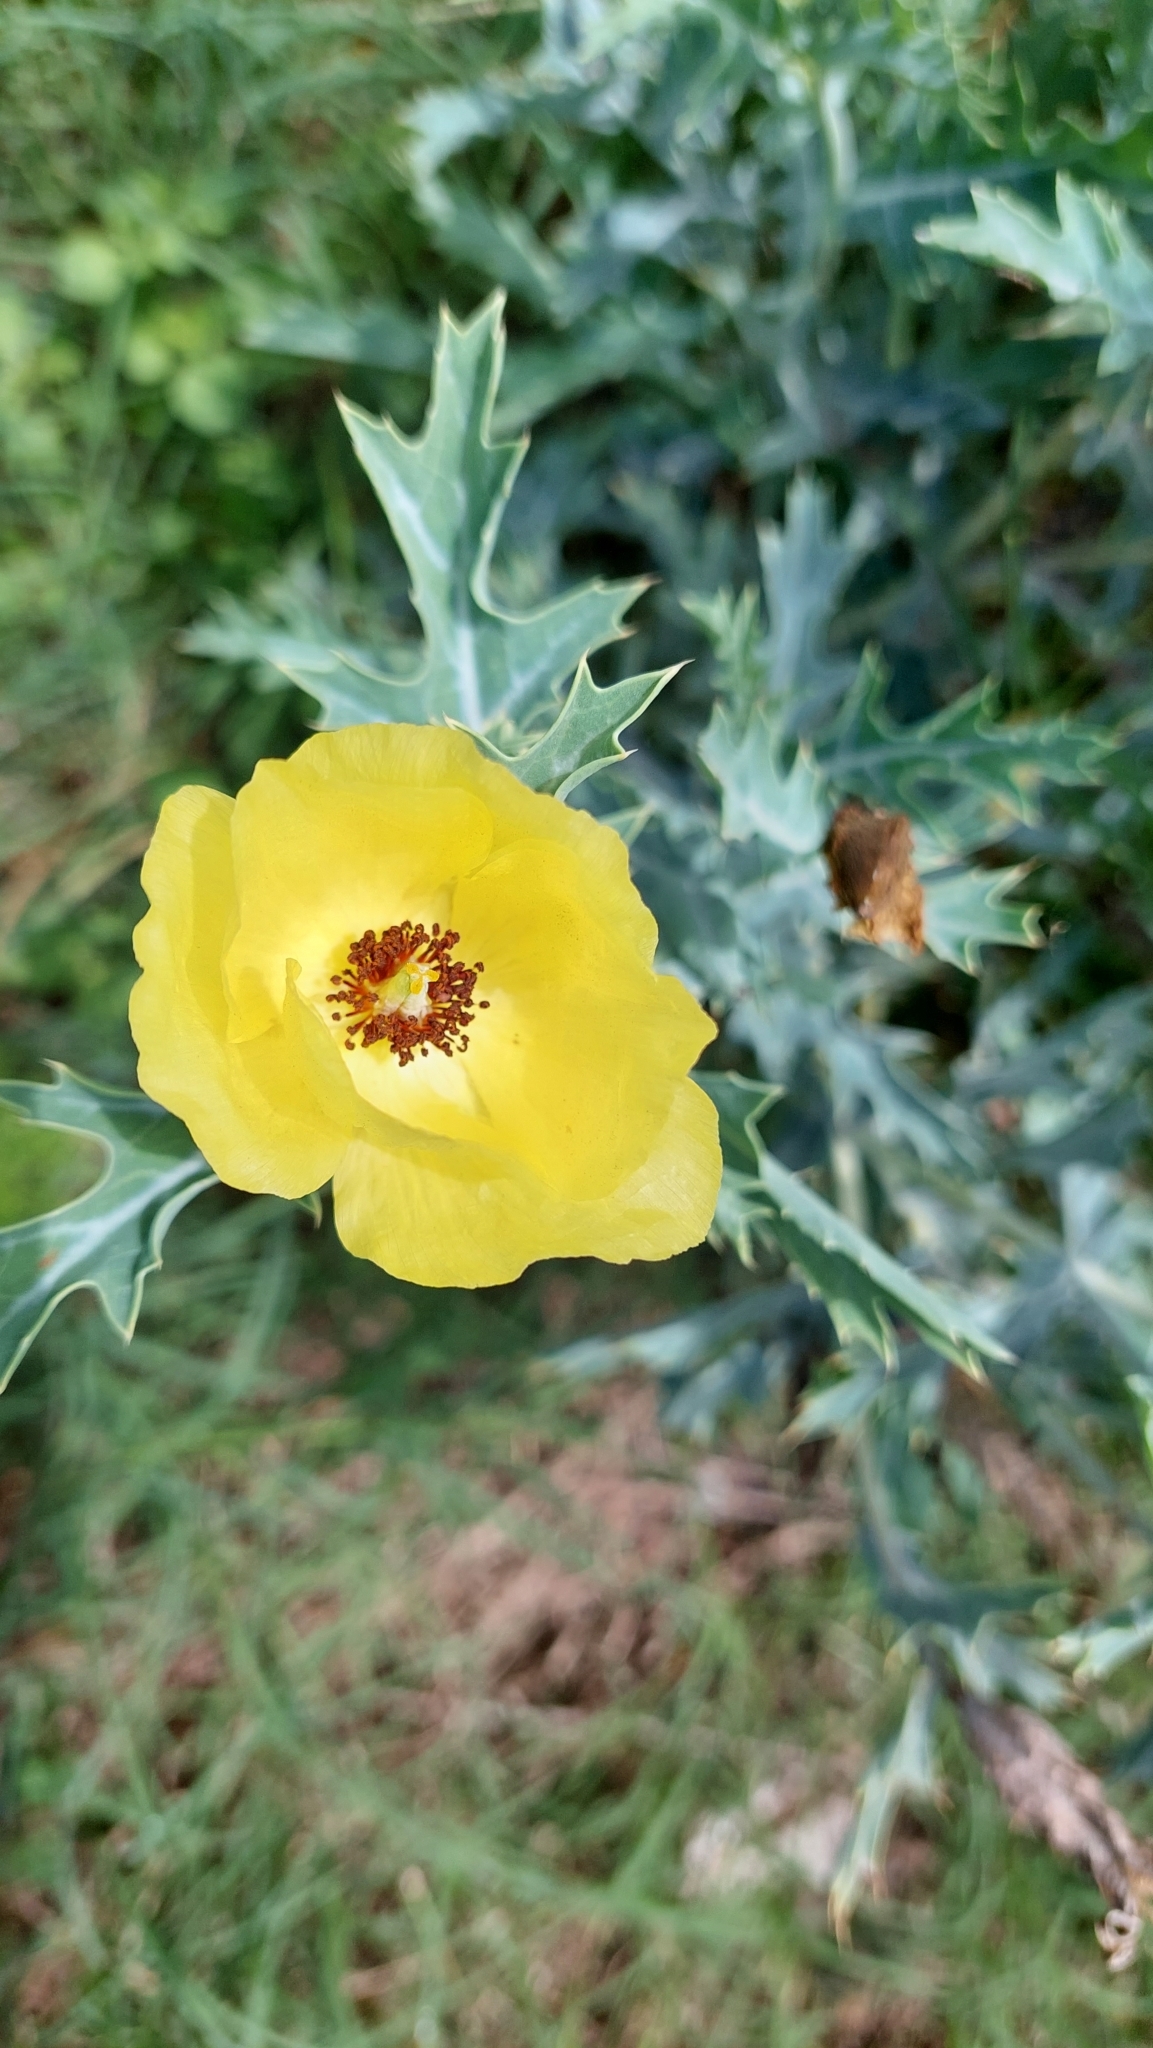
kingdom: Plantae
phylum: Tracheophyta
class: Magnoliopsida
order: Ranunculales
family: Papaveraceae
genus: Argemone
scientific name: Argemone subfusiformis
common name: American-poppy
